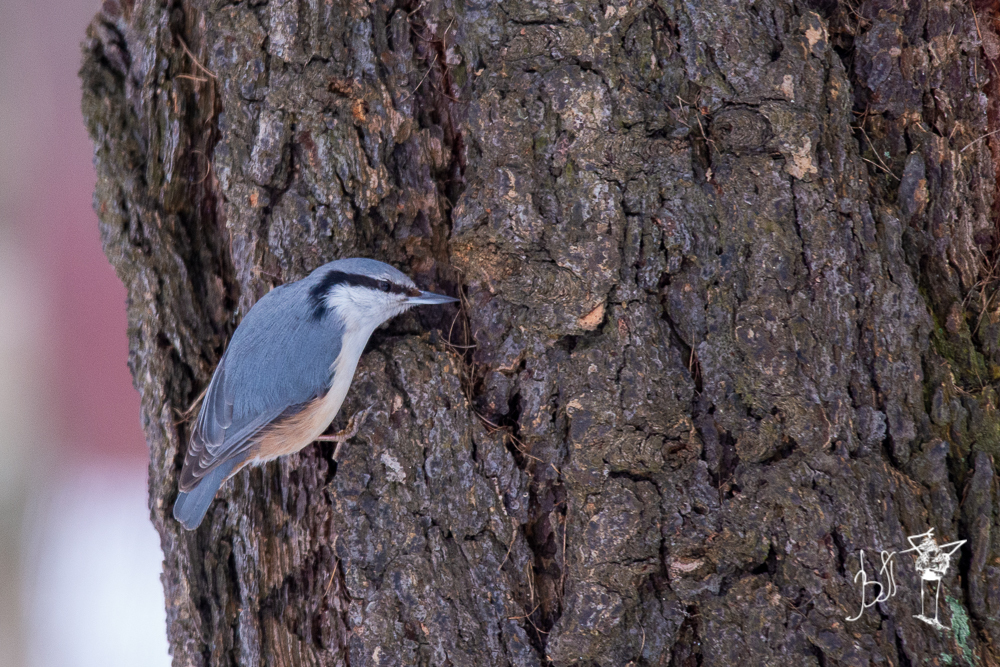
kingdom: Animalia
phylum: Chordata
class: Aves
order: Passeriformes
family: Sittidae
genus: Sitta
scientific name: Sitta europaea
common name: Eurasian nuthatch
